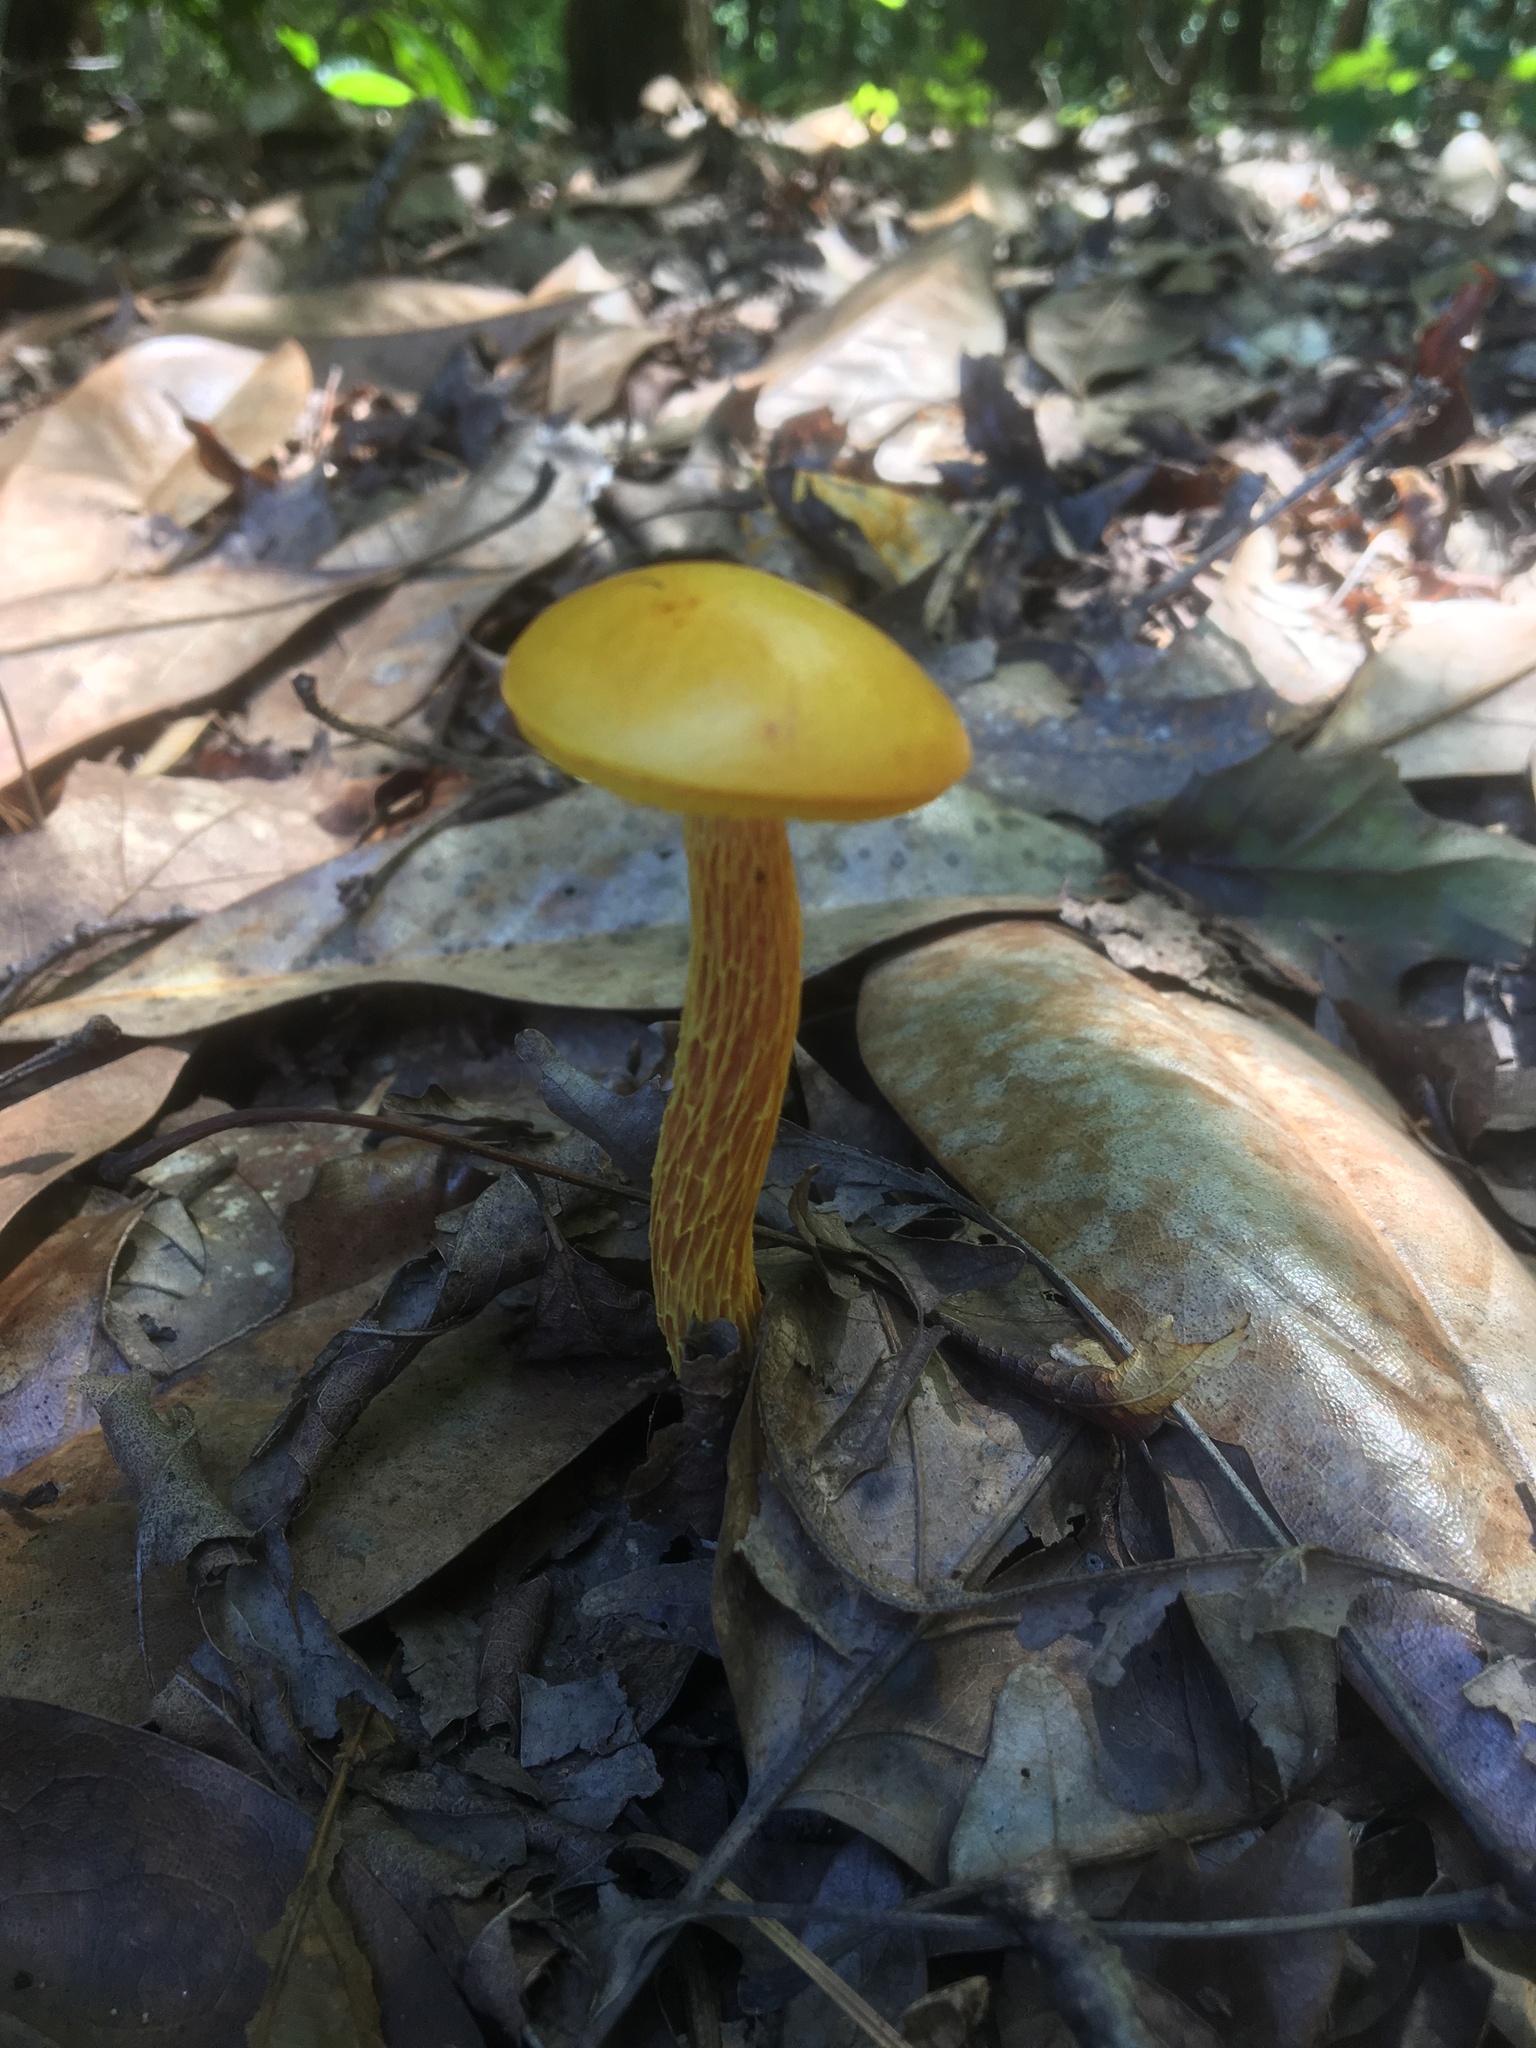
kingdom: Fungi
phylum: Basidiomycota
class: Agaricomycetes
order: Boletales
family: Boletaceae
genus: Aureoboletus
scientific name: Aureoboletus betula
